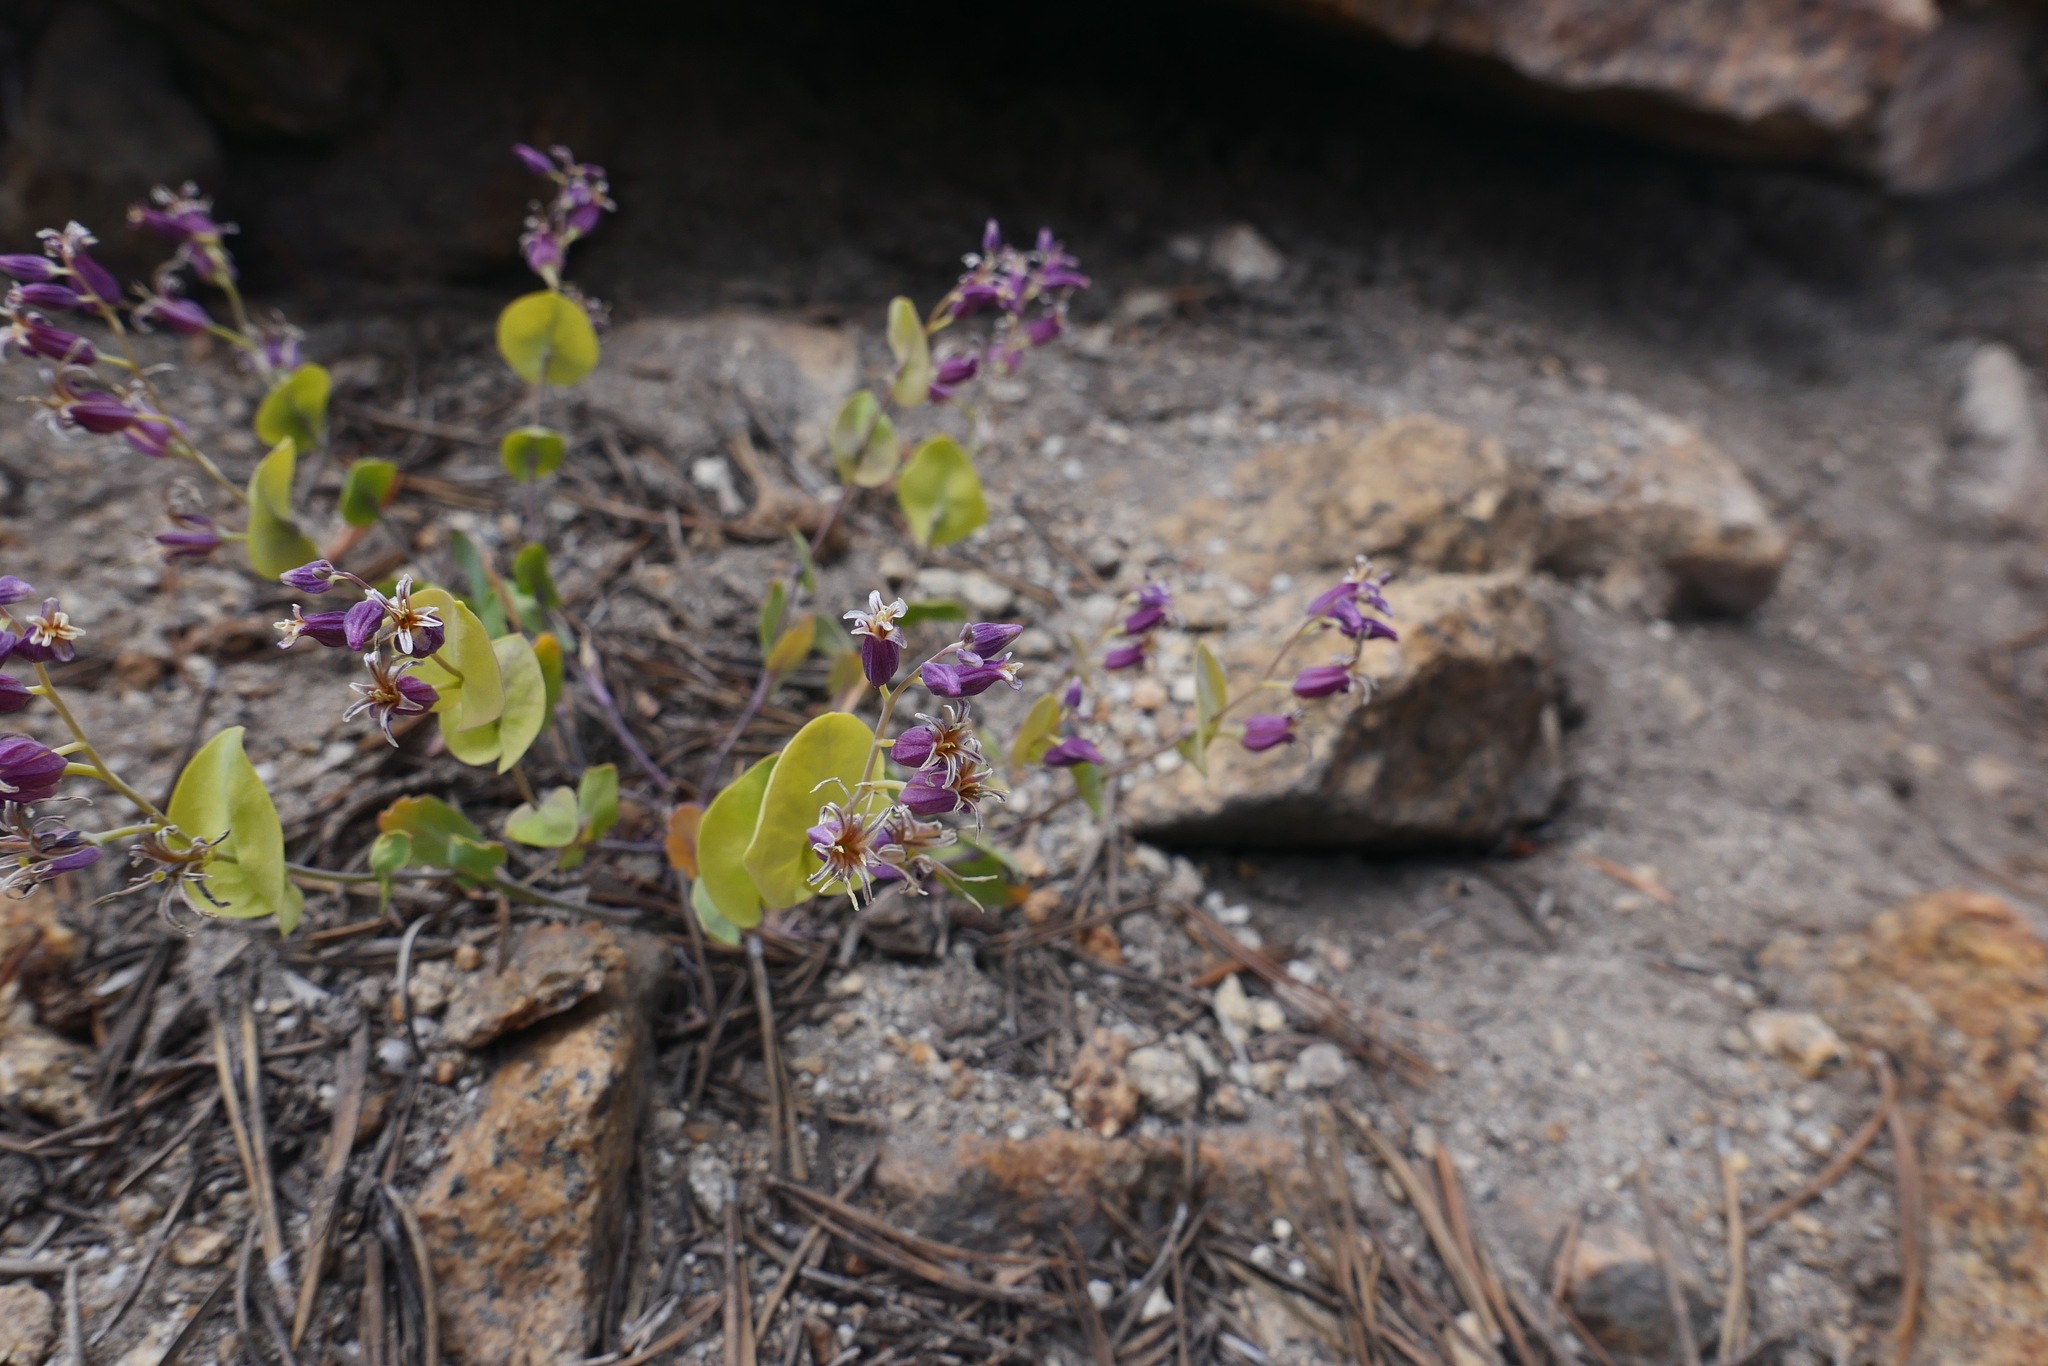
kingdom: Plantae
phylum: Tracheophyta
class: Magnoliopsida
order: Brassicales
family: Brassicaceae
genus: Streptanthus
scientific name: Streptanthus tortuosus
